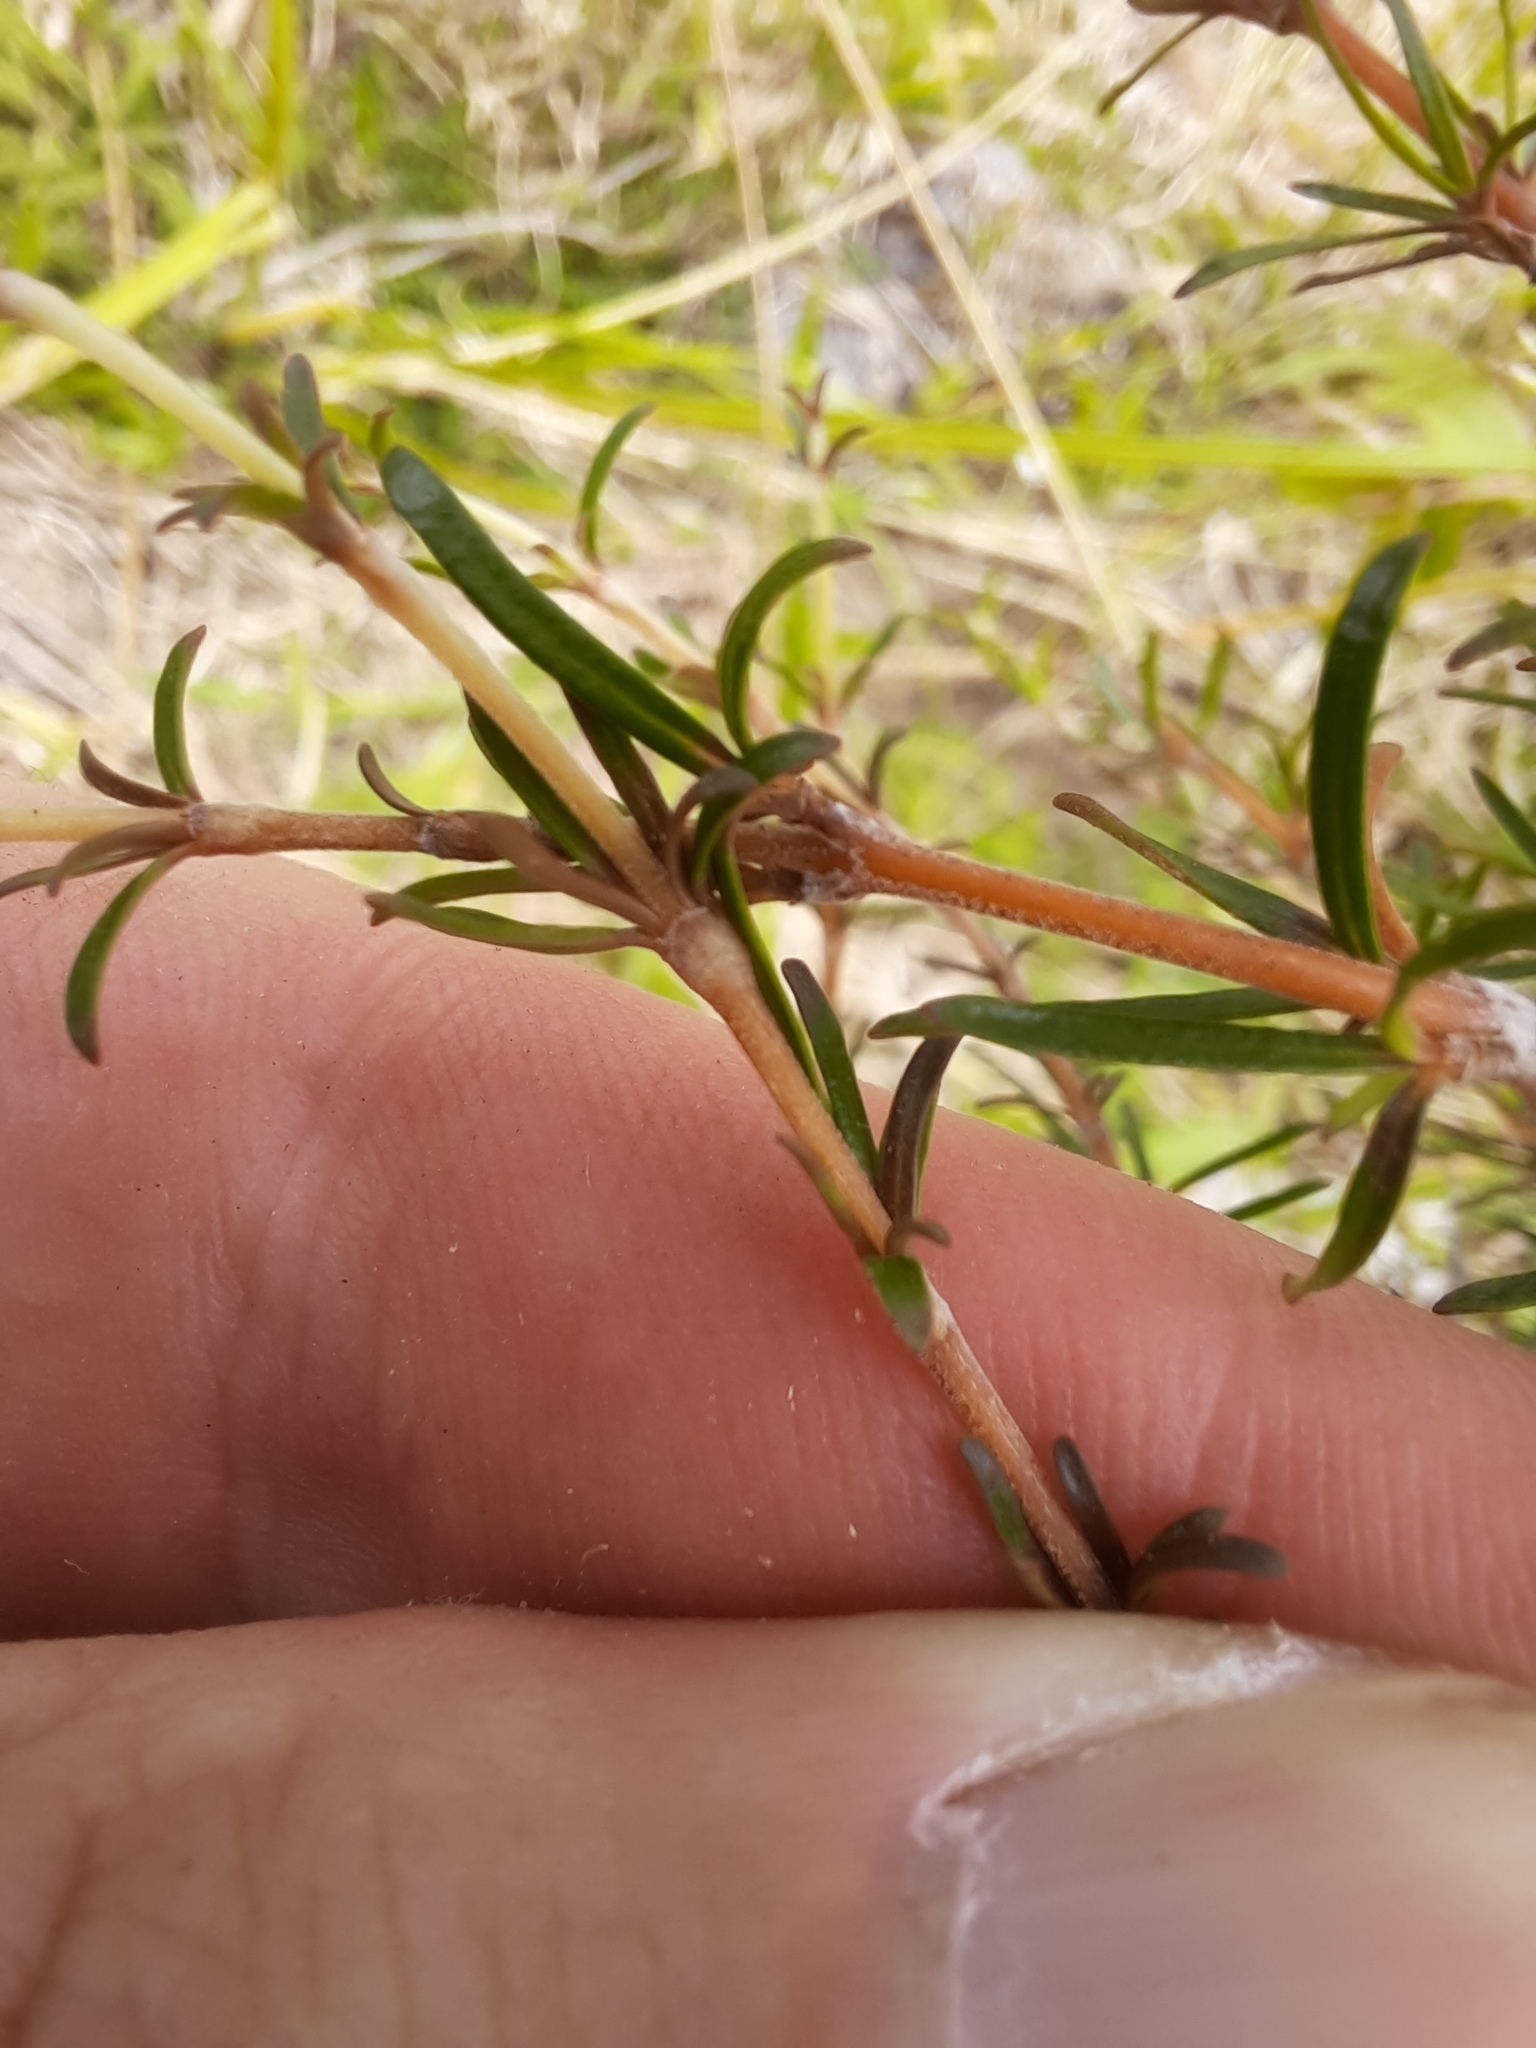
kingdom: Plantae
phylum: Tracheophyta
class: Magnoliopsida
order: Gentianales
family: Rubiaceae
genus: Coprosma
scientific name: Coprosma rugosa
